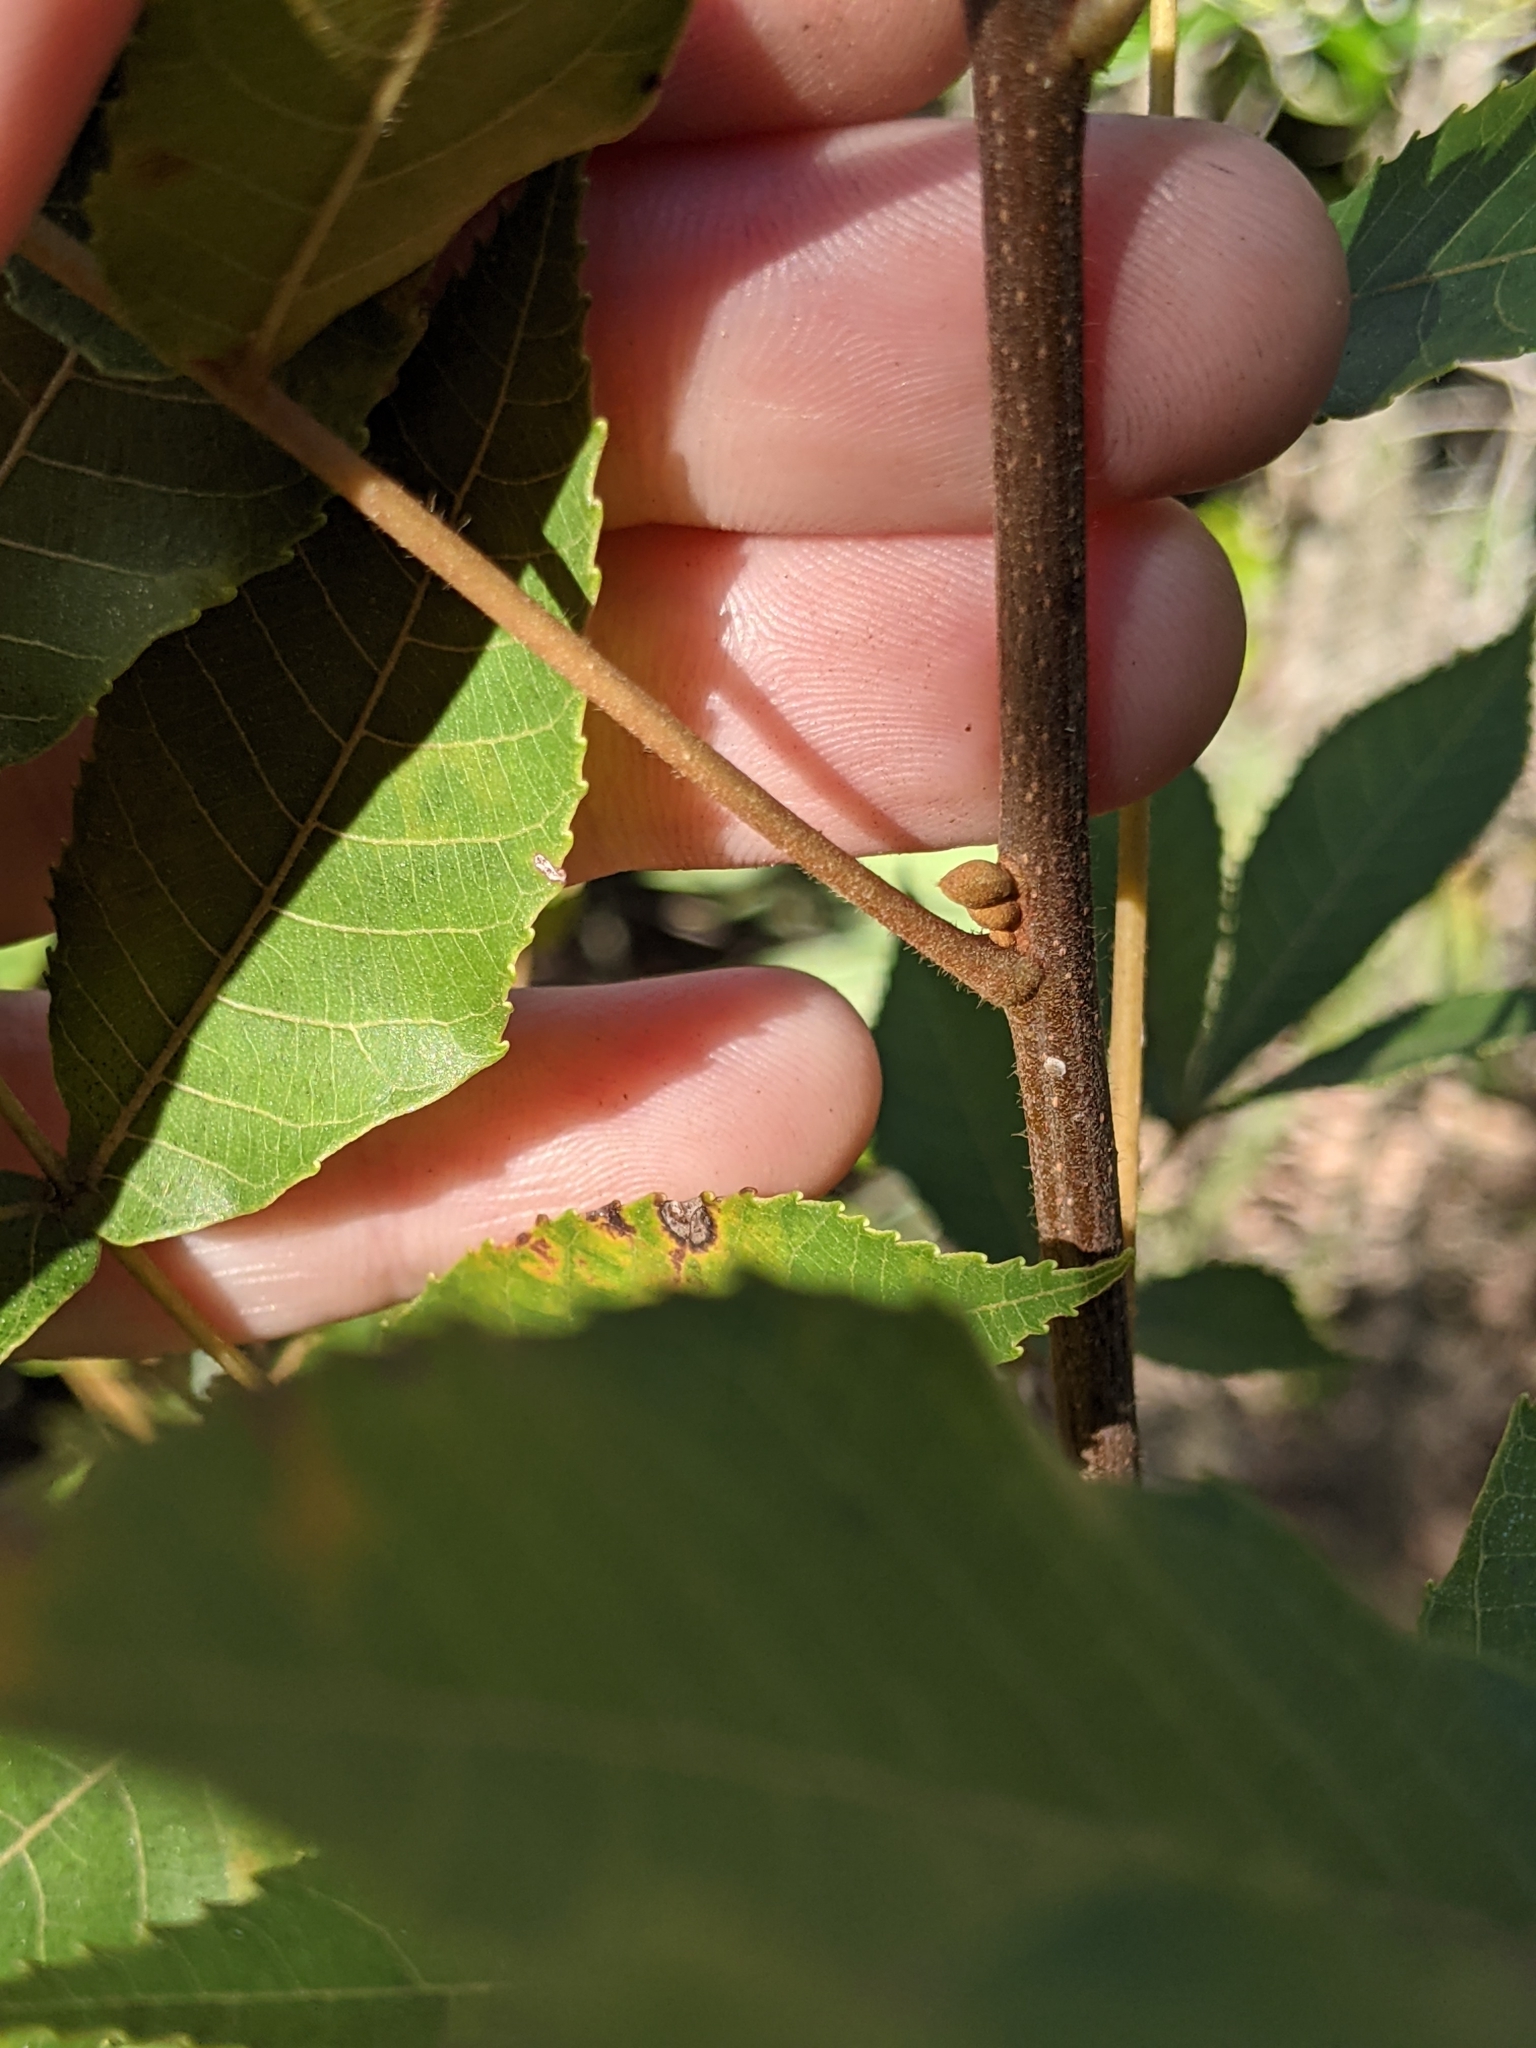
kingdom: Plantae
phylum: Tracheophyta
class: Magnoliopsida
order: Fagales
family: Juglandaceae
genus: Carya
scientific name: Carya floridana
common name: Scrub hickory
